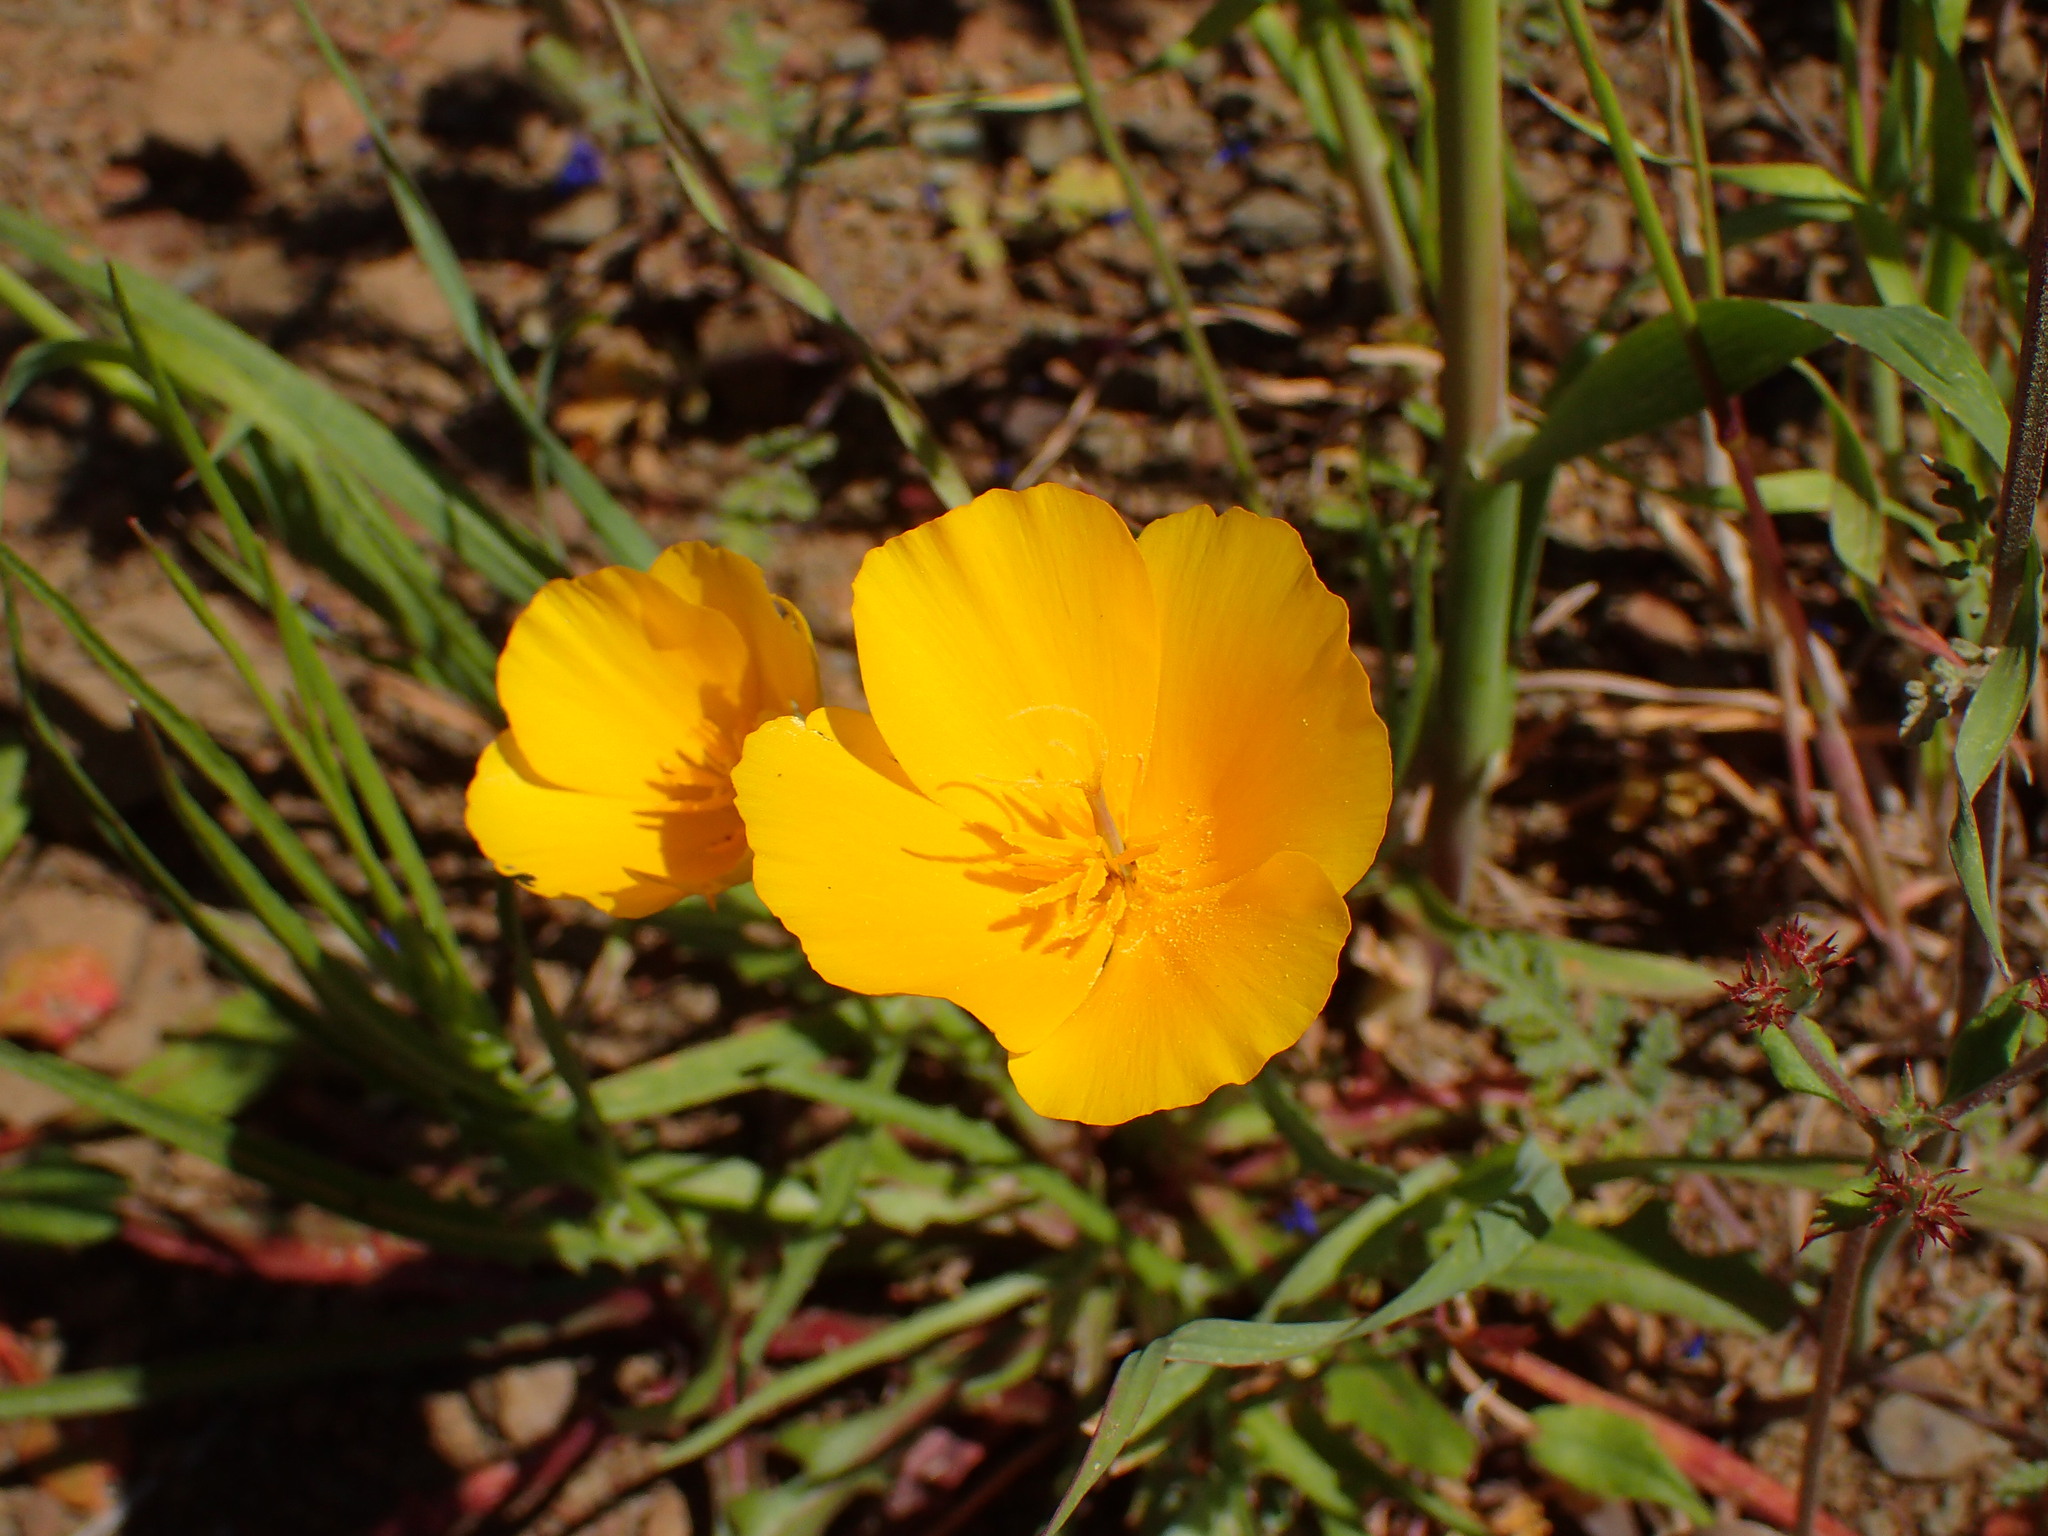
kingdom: Plantae
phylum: Tracheophyta
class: Magnoliopsida
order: Ranunculales
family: Papaveraceae
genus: Eschscholzia
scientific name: Eschscholzia caespitosa
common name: Tufted california-poppy
